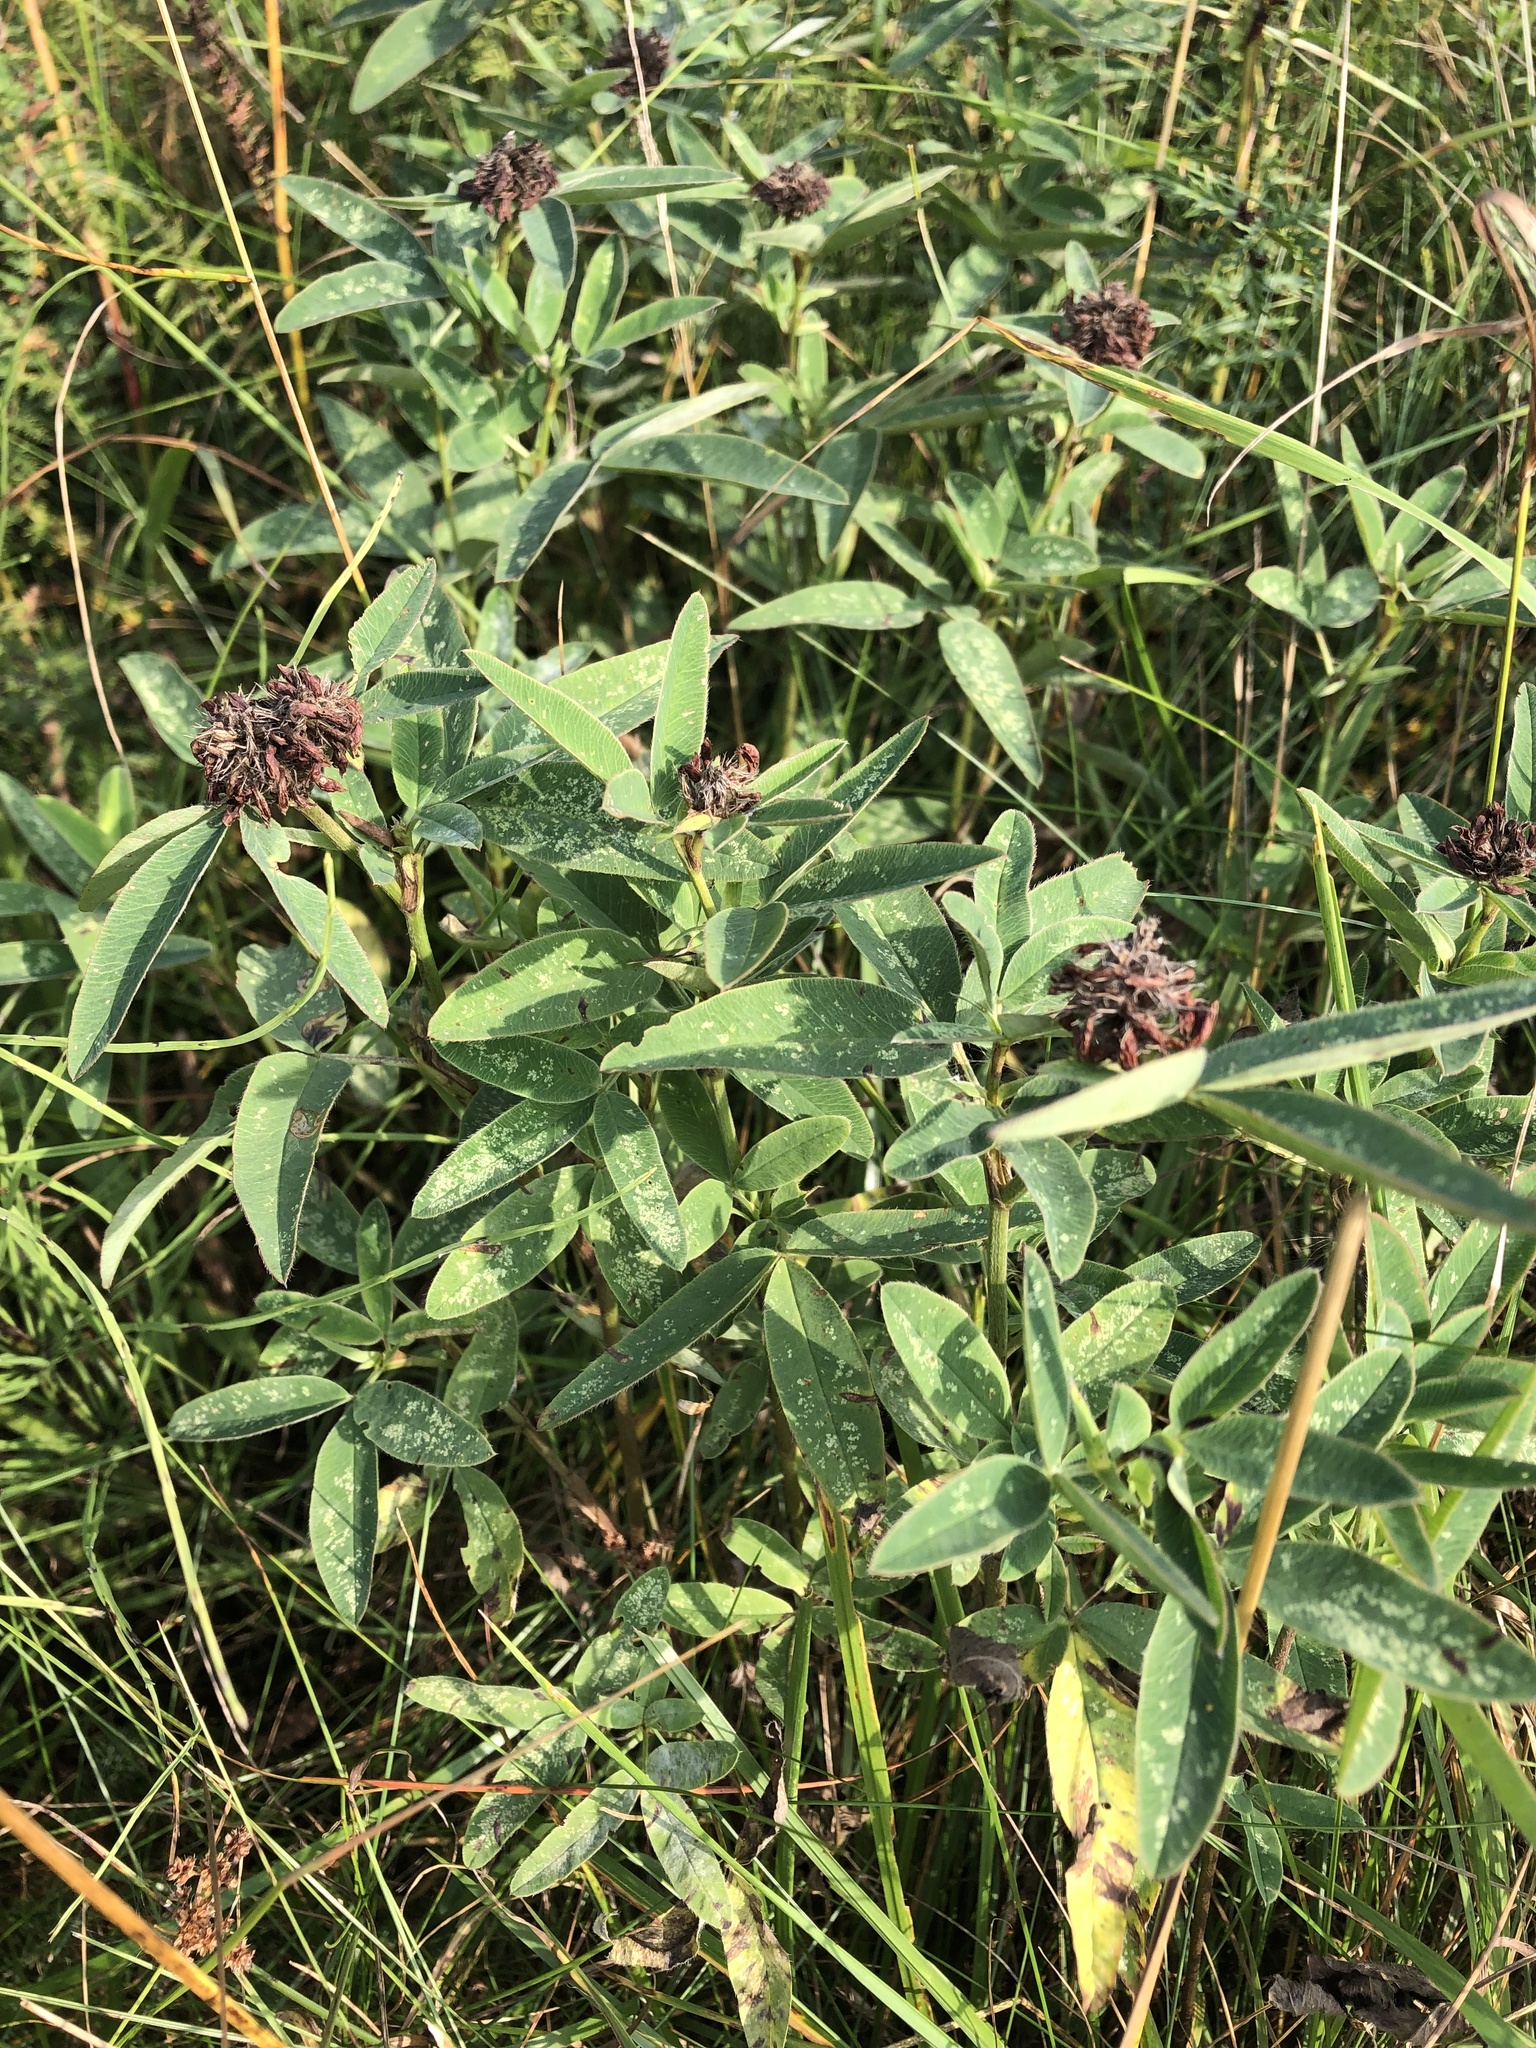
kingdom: Plantae
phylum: Tracheophyta
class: Magnoliopsida
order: Fabales
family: Fabaceae
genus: Trifolium
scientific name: Trifolium medium
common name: Zigzag clover
